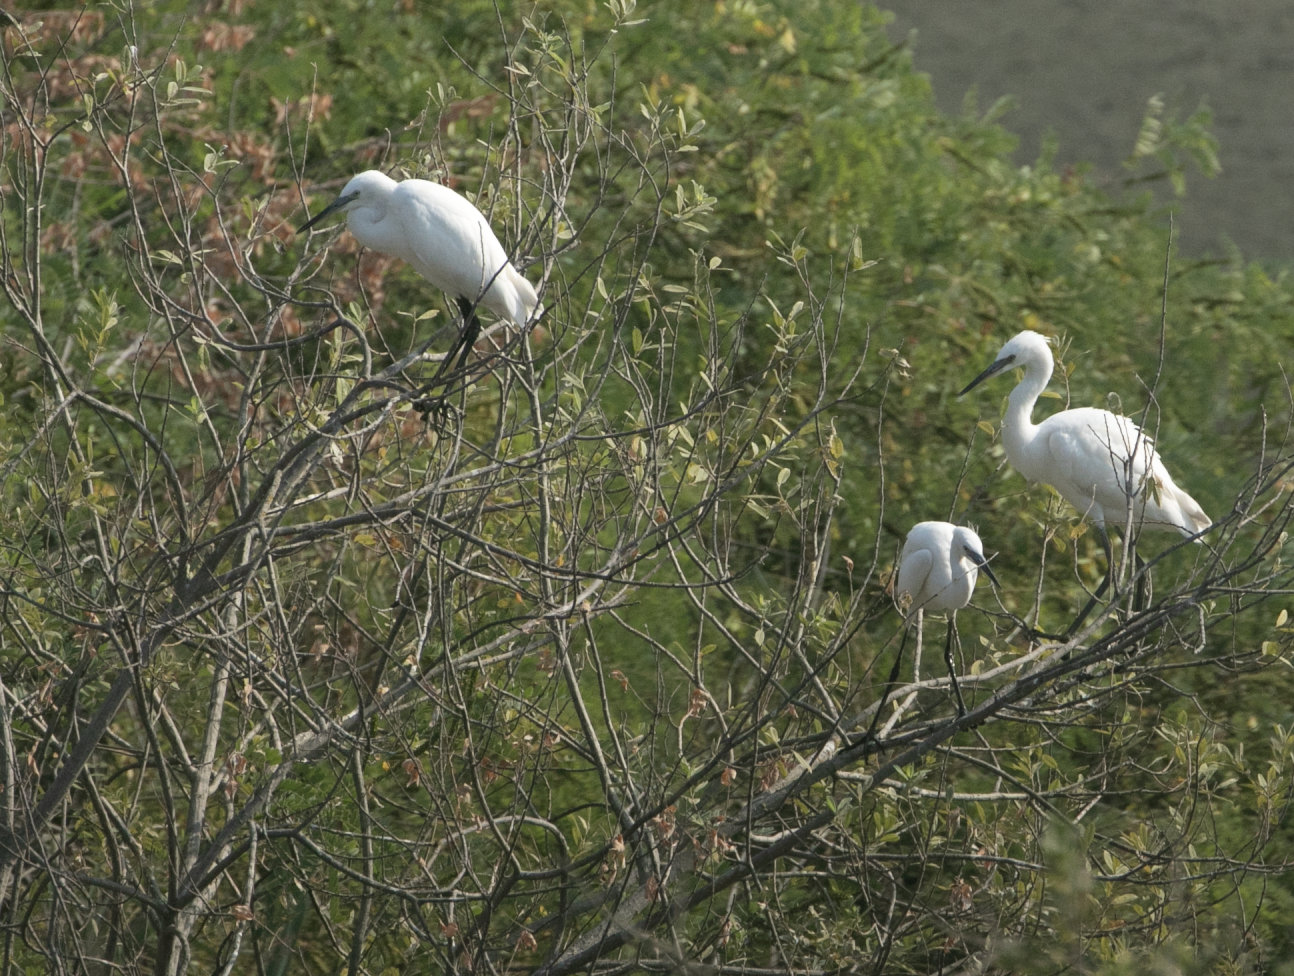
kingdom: Animalia
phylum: Chordata
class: Aves
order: Pelecaniformes
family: Ardeidae
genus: Egretta
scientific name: Egretta garzetta
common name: Little egret
